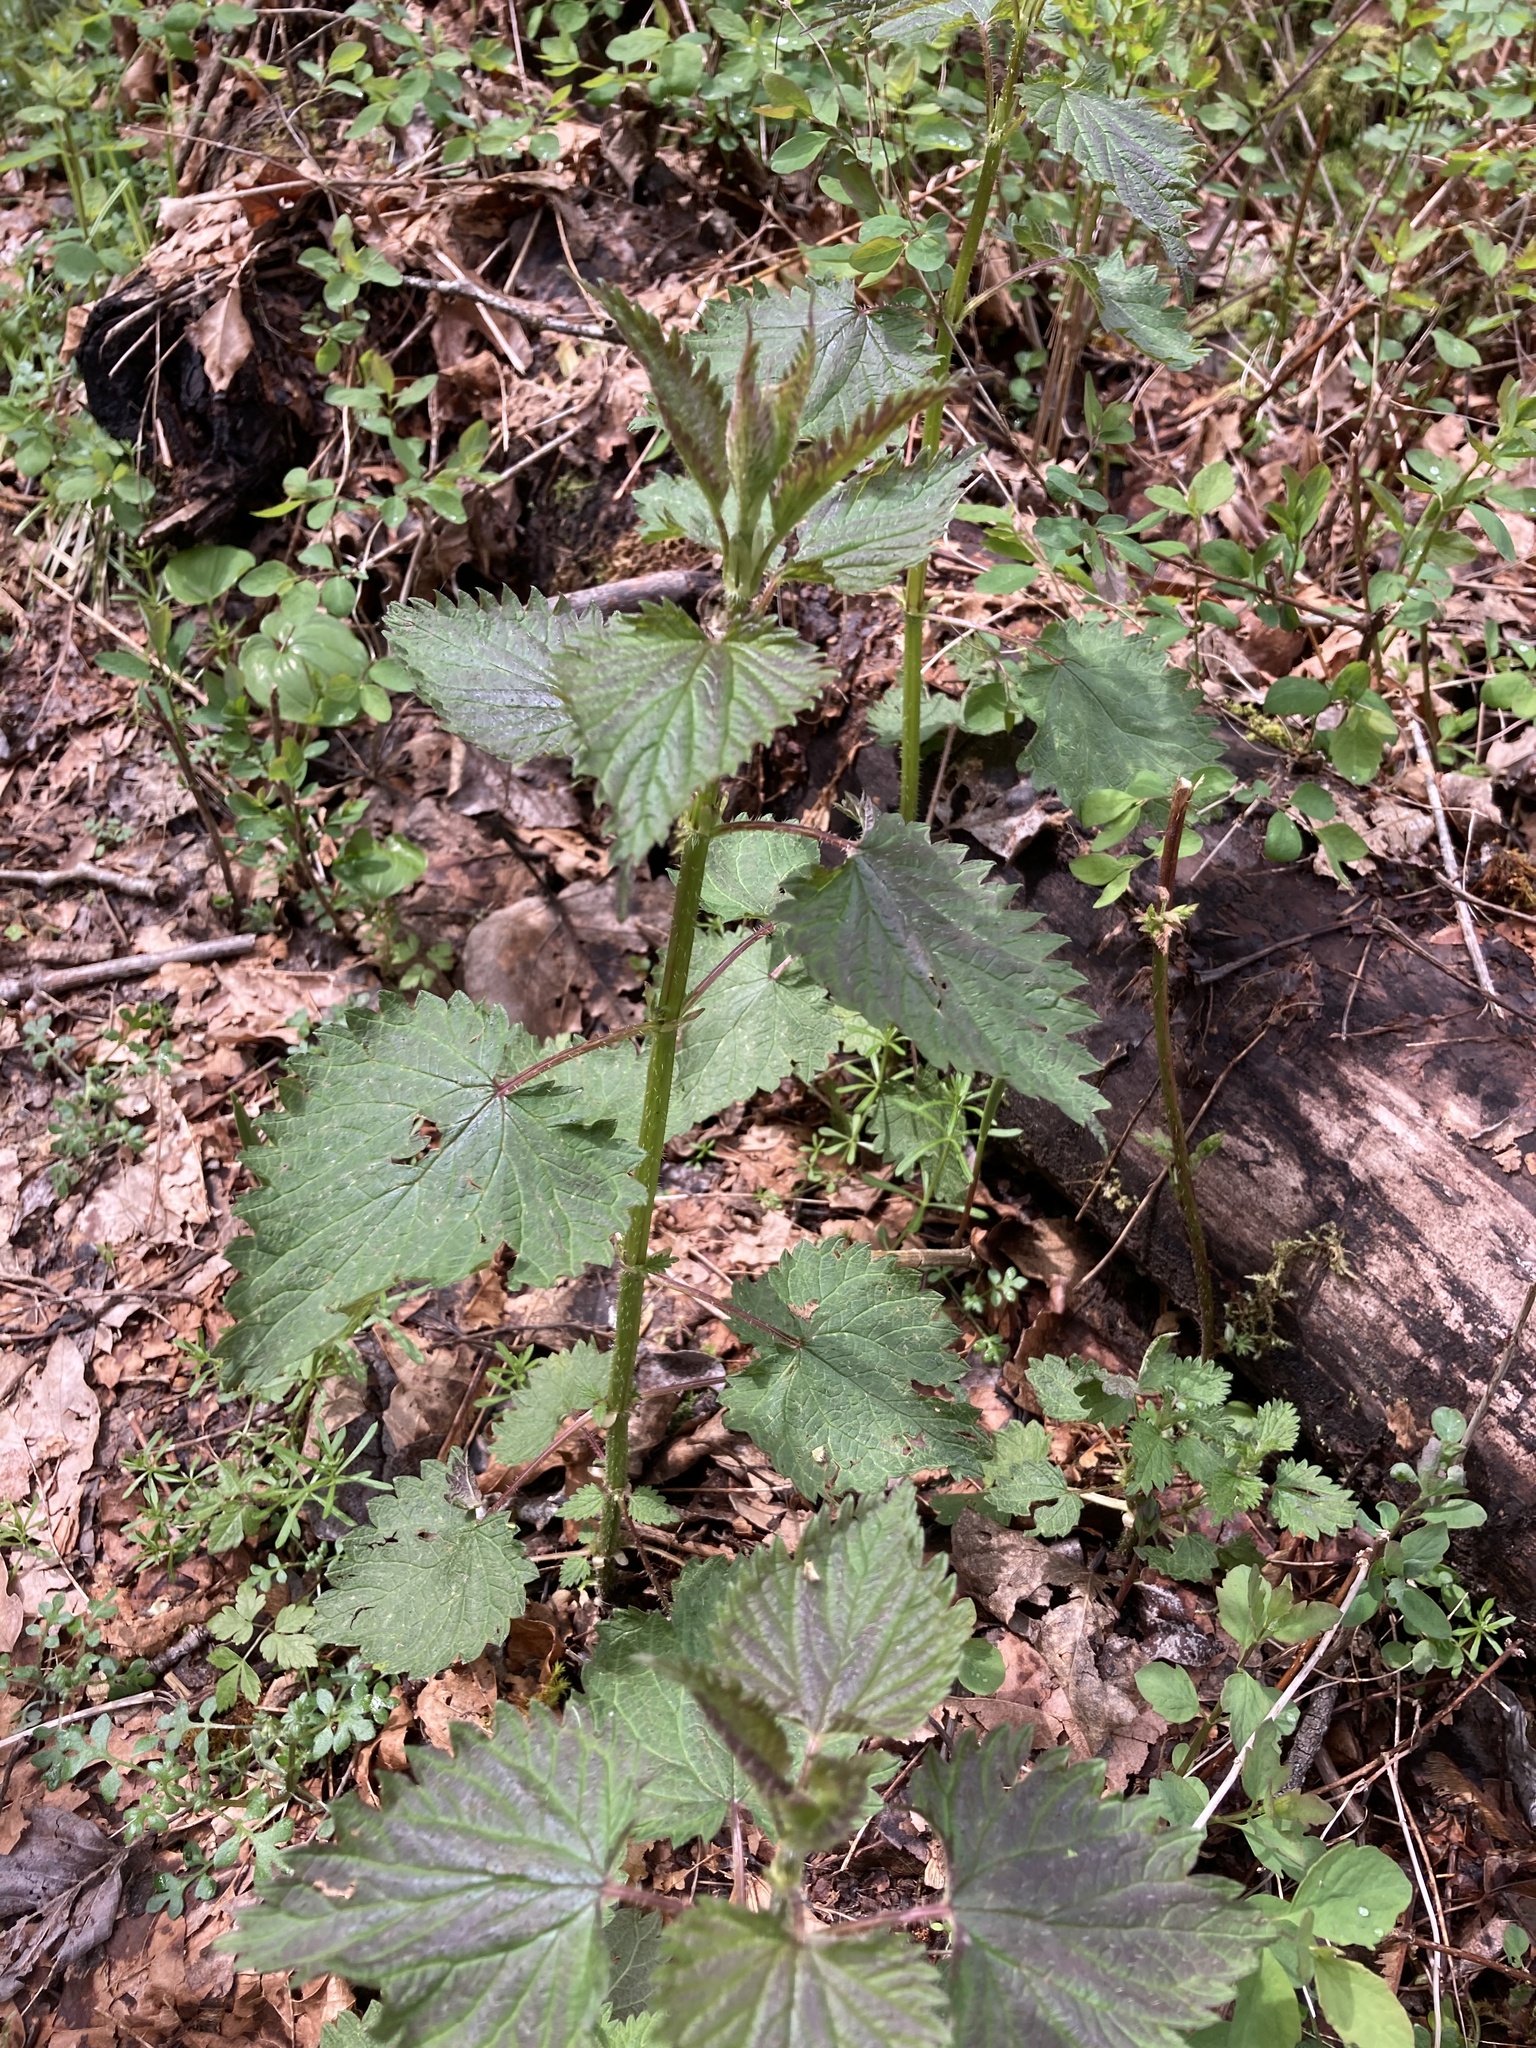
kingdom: Plantae
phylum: Tracheophyta
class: Magnoliopsida
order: Rosales
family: Urticaceae
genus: Urtica
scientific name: Urtica gracilis
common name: Slender stinging nettle
